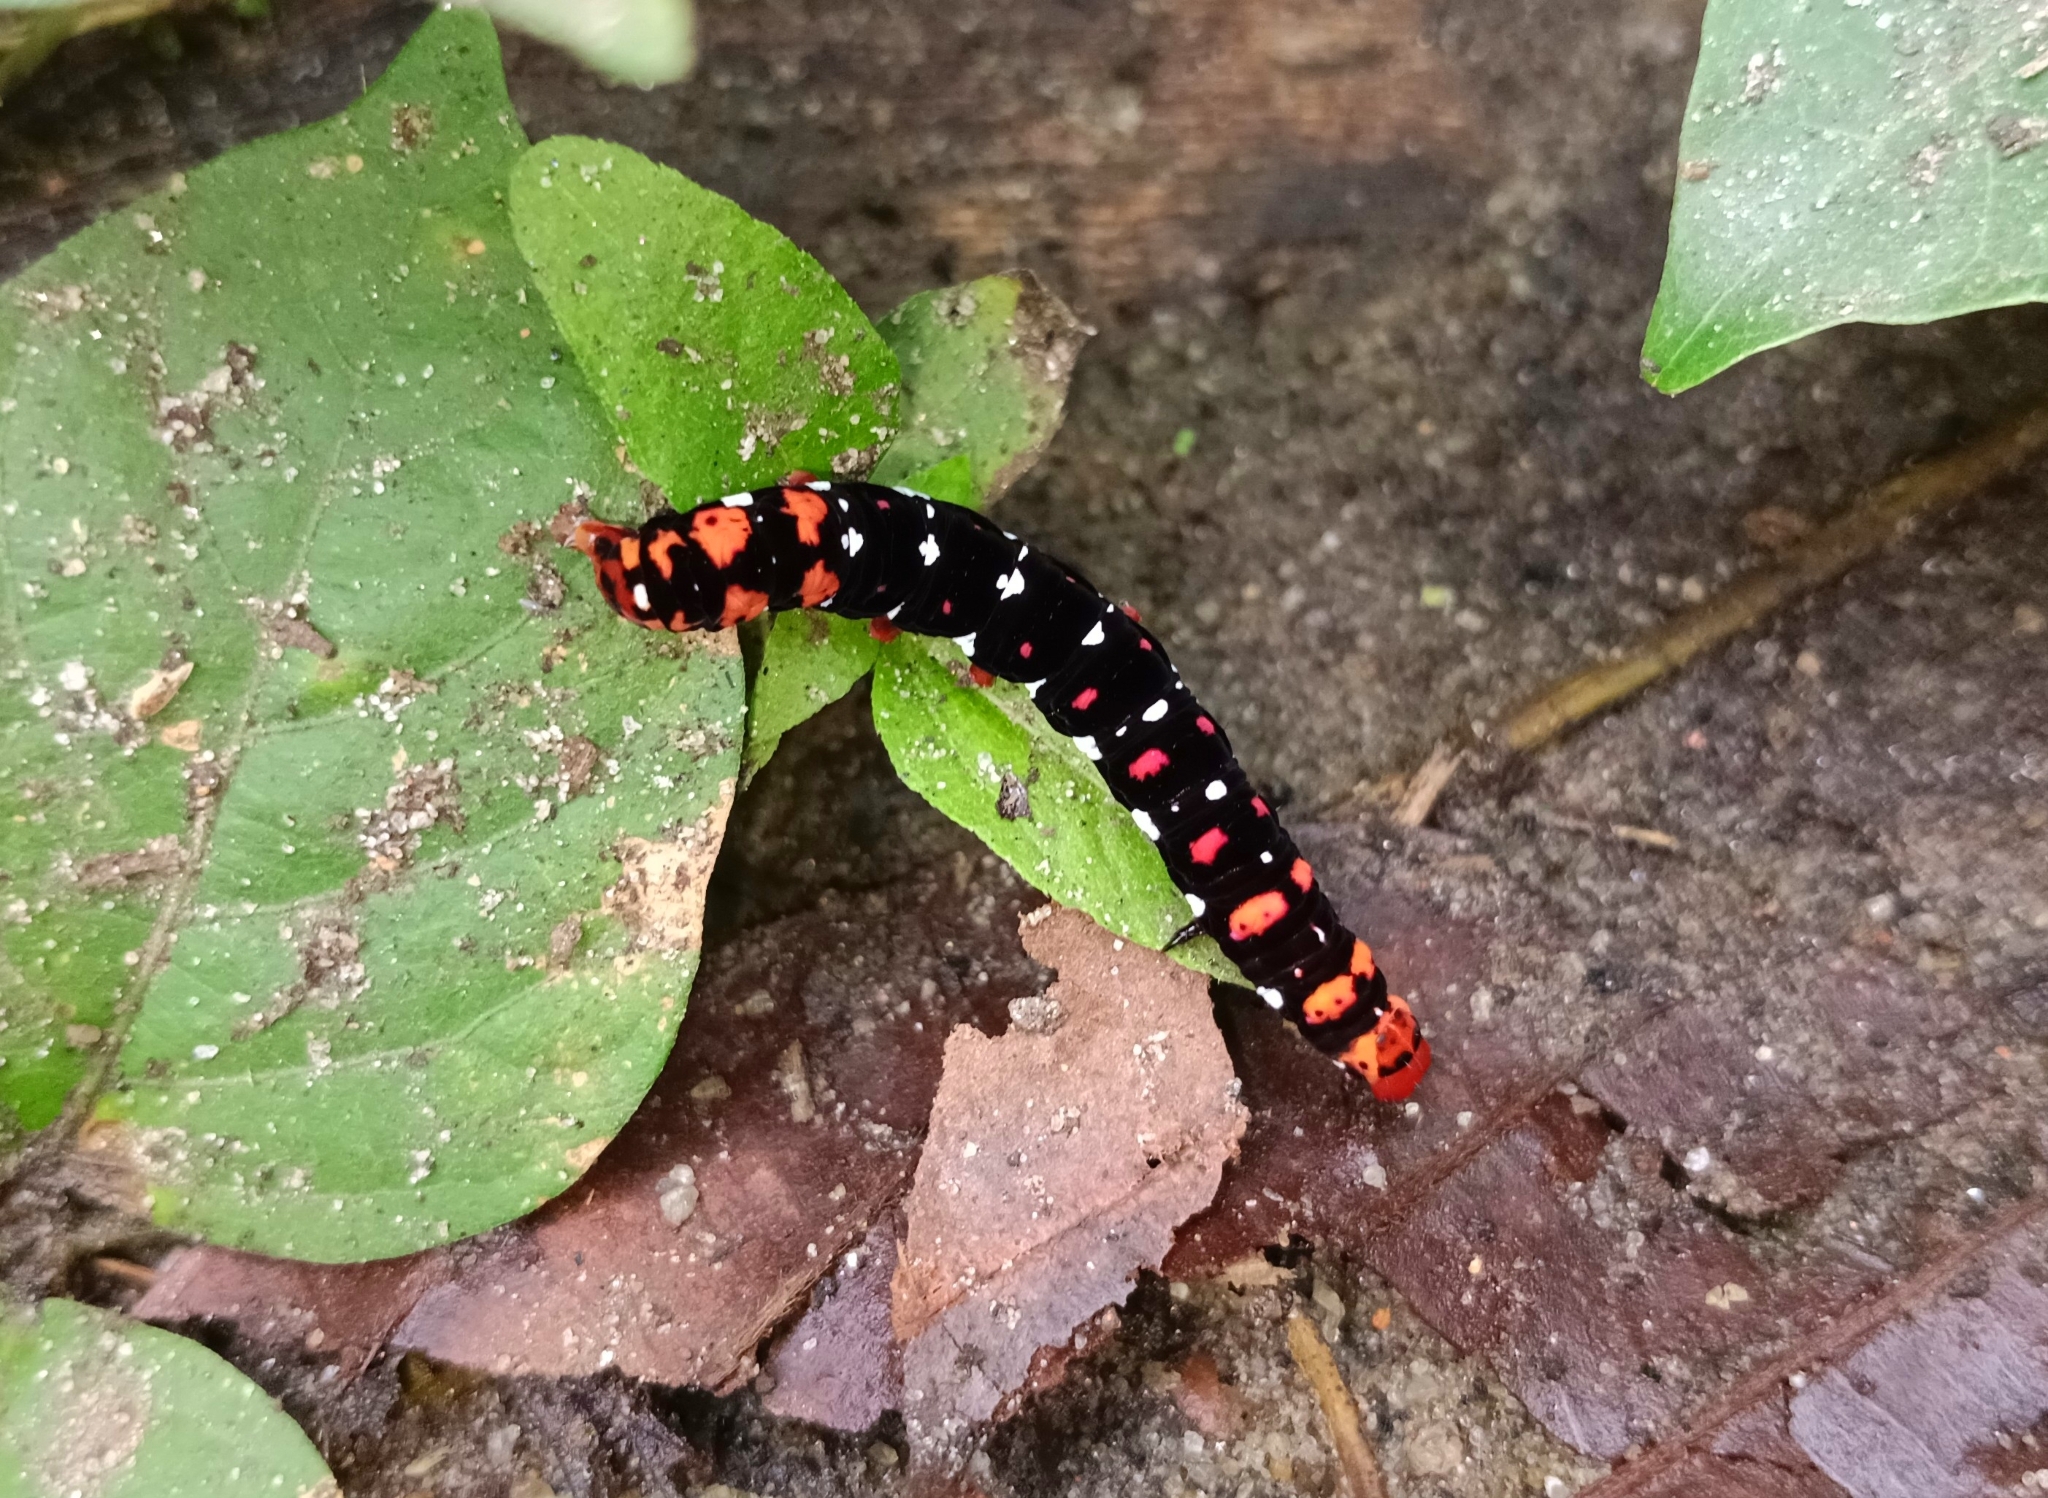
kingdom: Animalia
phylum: Arthropoda
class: Insecta
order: Lepidoptera
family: Noctuidae
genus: Polytela
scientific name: Polytela gloriosae
